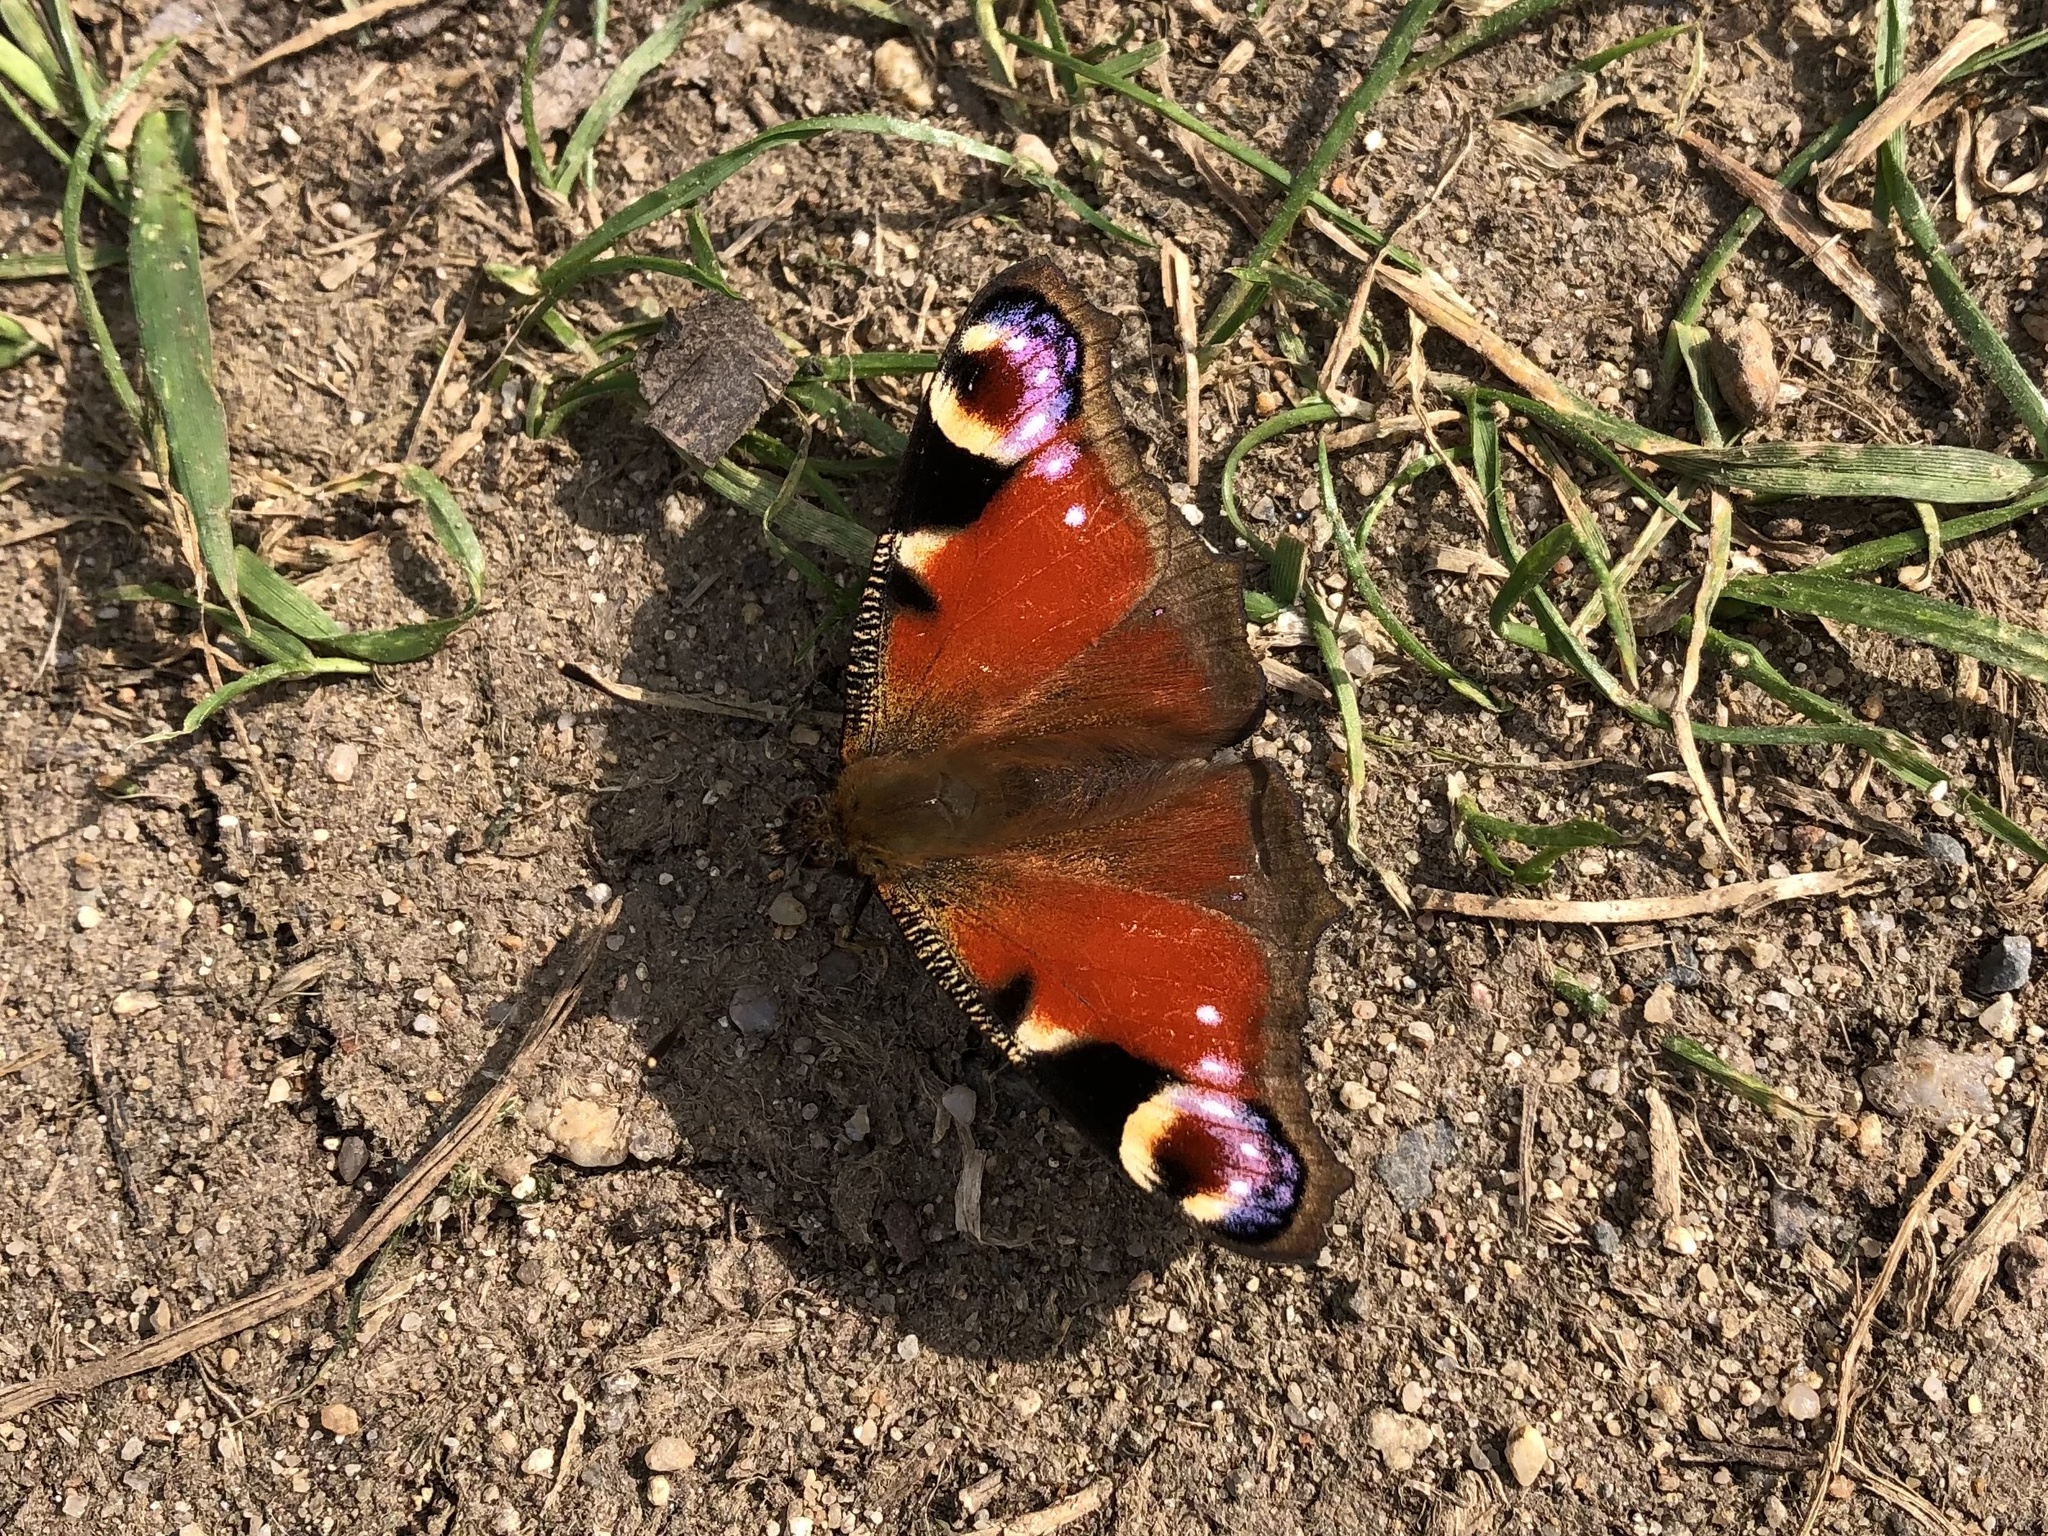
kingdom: Animalia
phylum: Arthropoda
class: Insecta
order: Lepidoptera
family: Nymphalidae
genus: Aglais
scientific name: Aglais io
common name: Peacock
